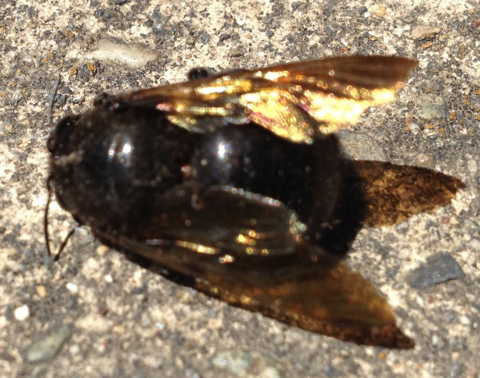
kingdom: Animalia
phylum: Arthropoda
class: Insecta
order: Hymenoptera
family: Apidae
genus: Xylocopa
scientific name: Xylocopa sonorina
